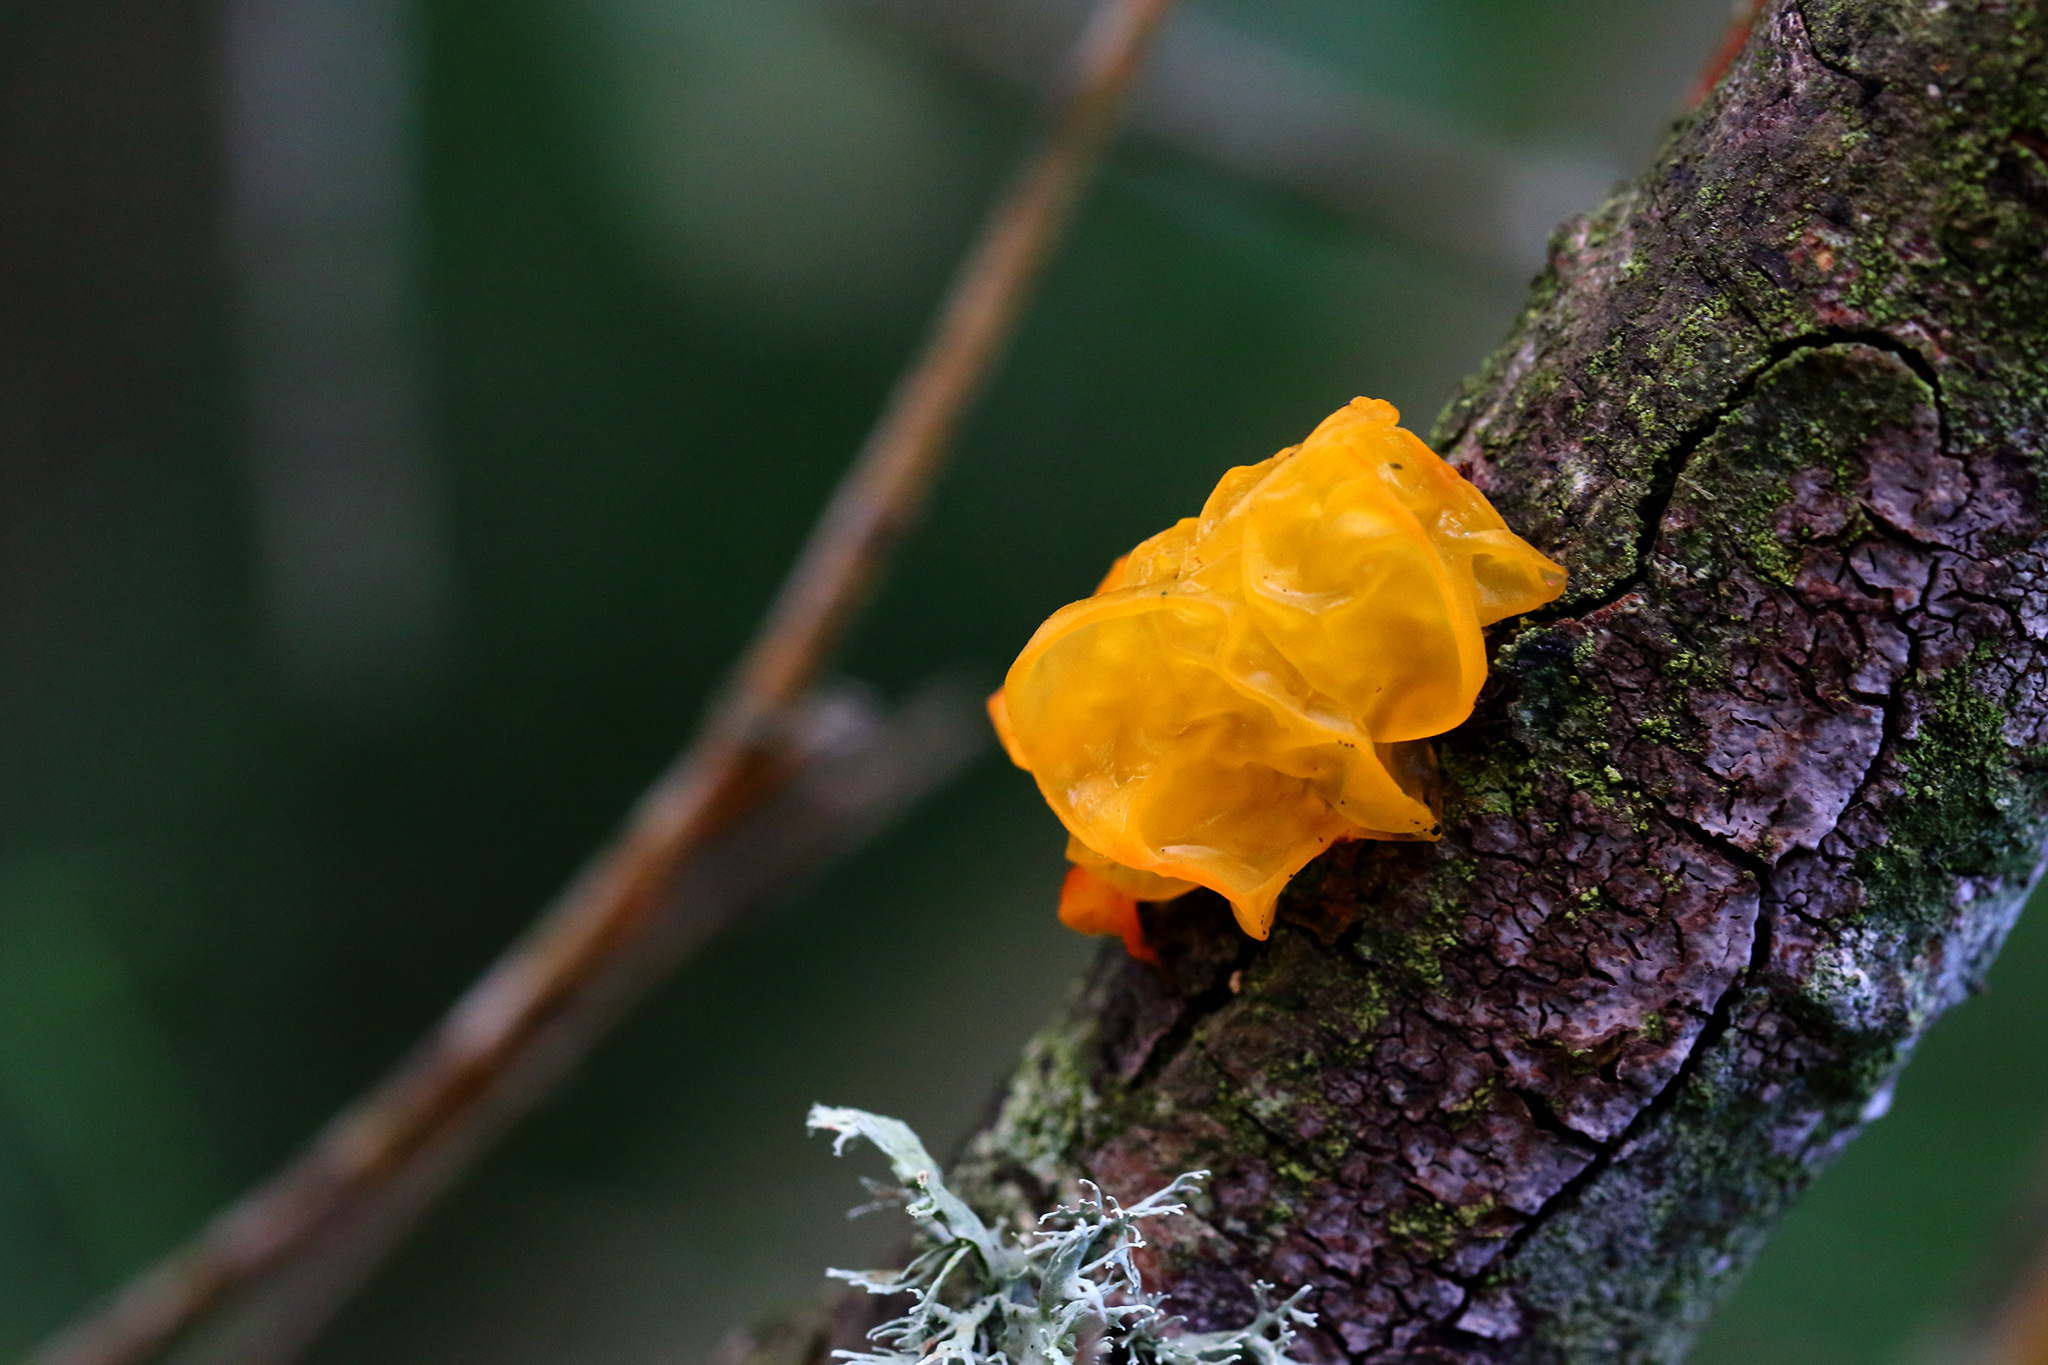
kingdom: Fungi
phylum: Basidiomycota
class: Tremellomycetes
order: Tremellales
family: Tremellaceae
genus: Tremella
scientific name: Tremella mesenterica
